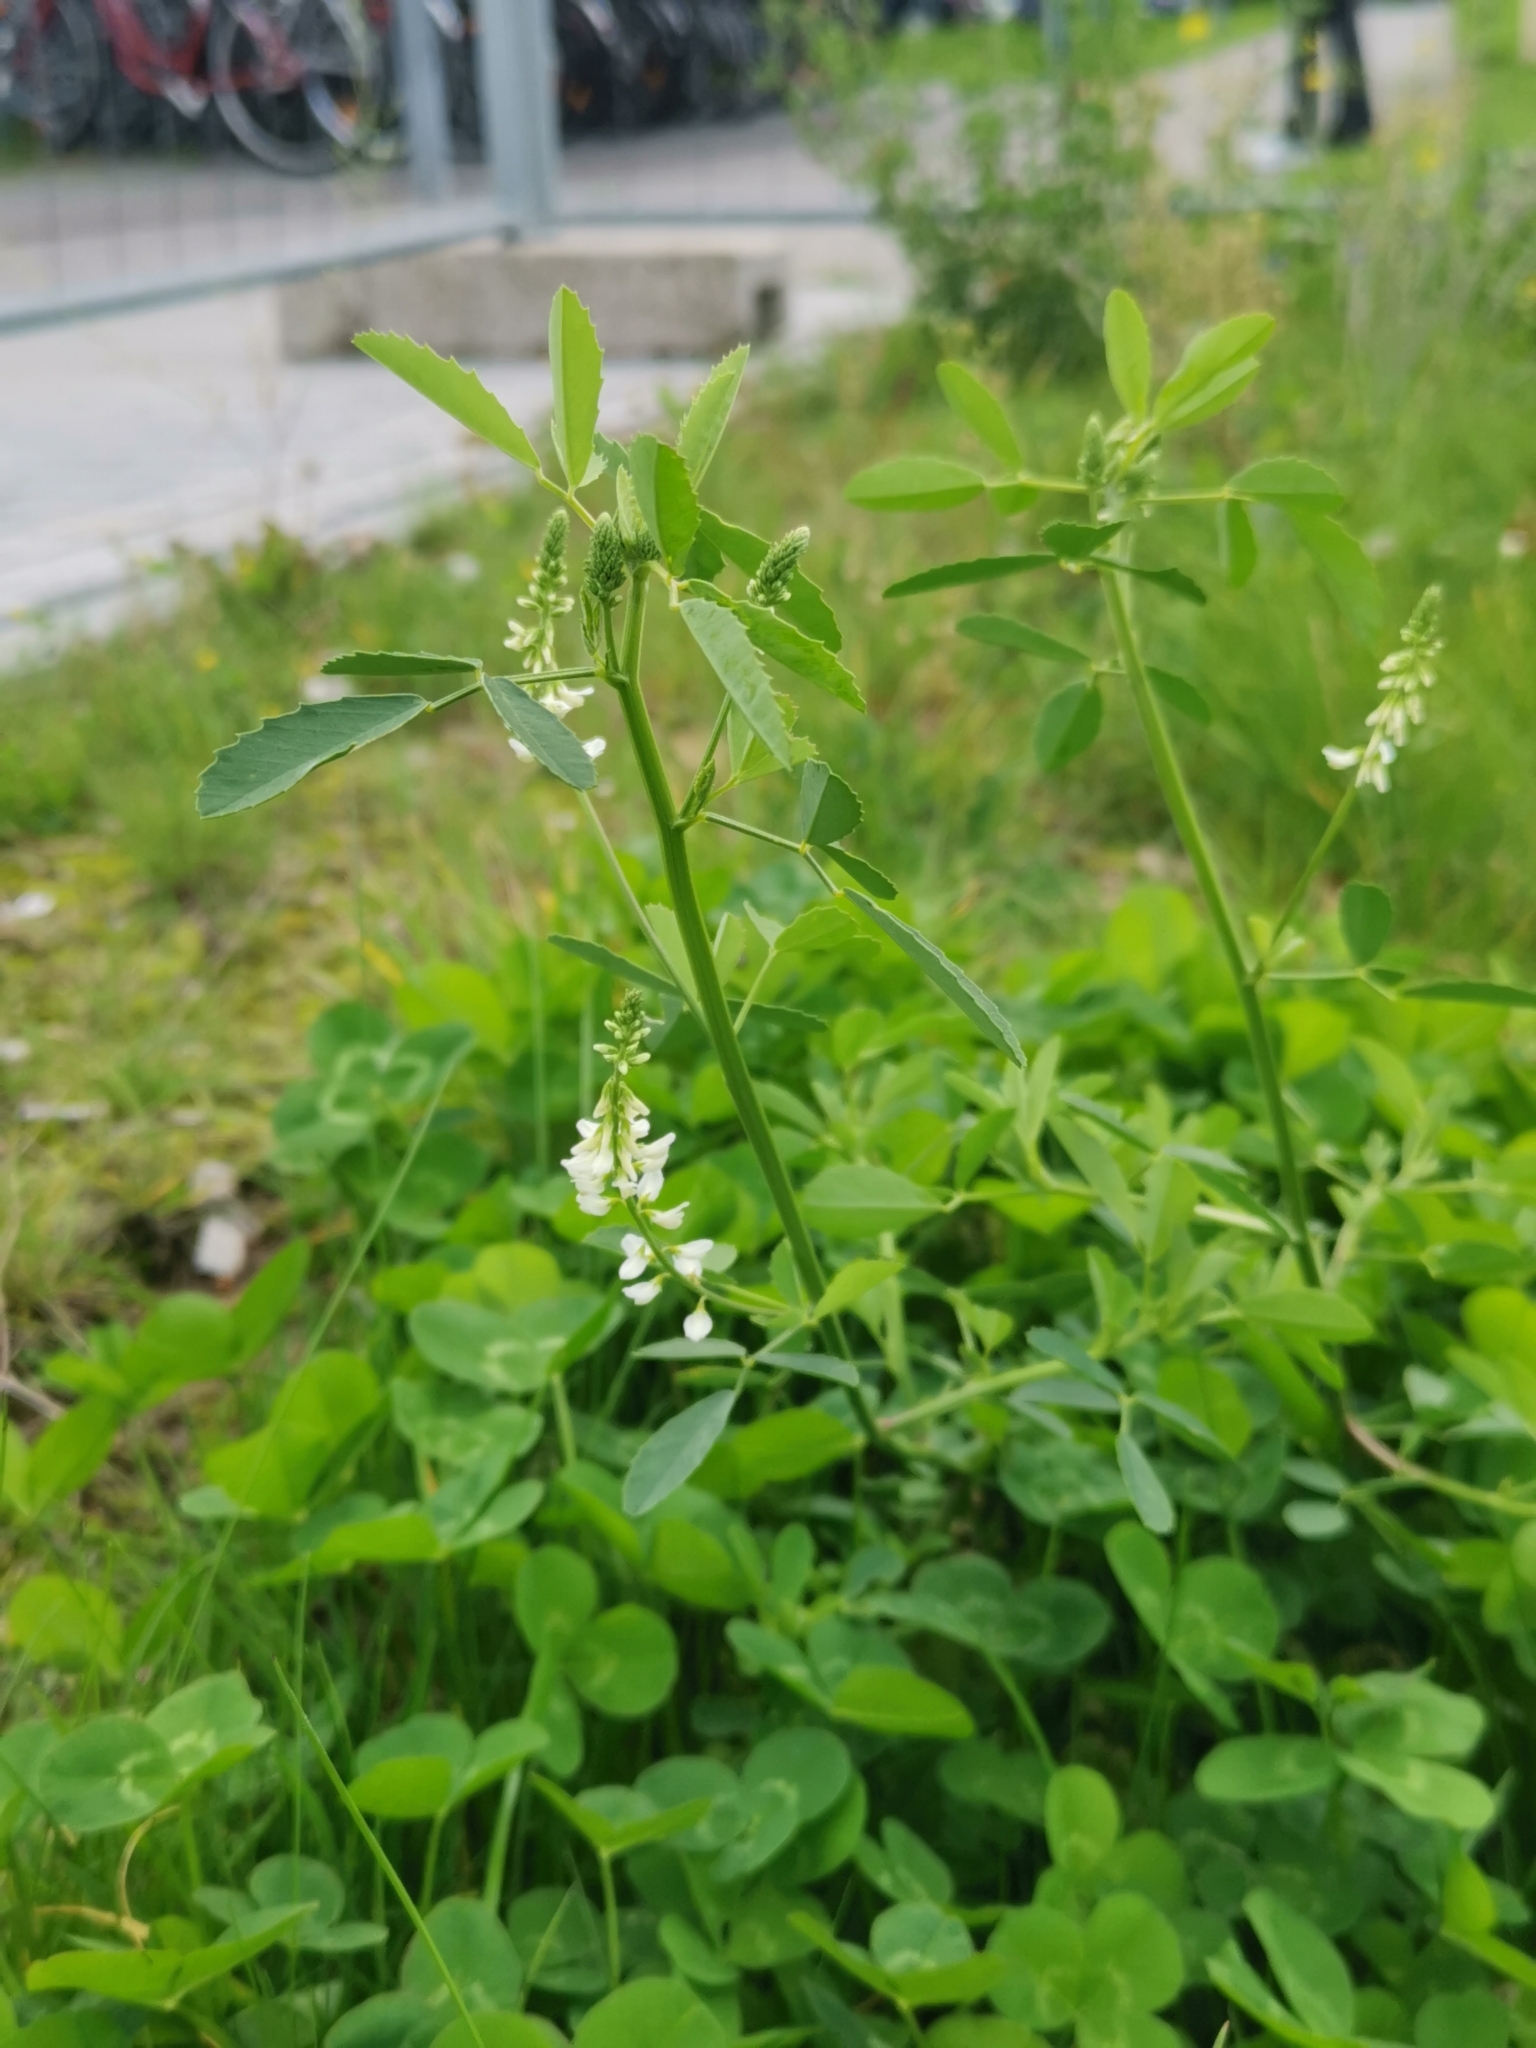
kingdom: Plantae
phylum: Tracheophyta
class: Magnoliopsida
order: Fabales
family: Fabaceae
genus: Melilotus
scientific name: Melilotus albus
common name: White melilot
